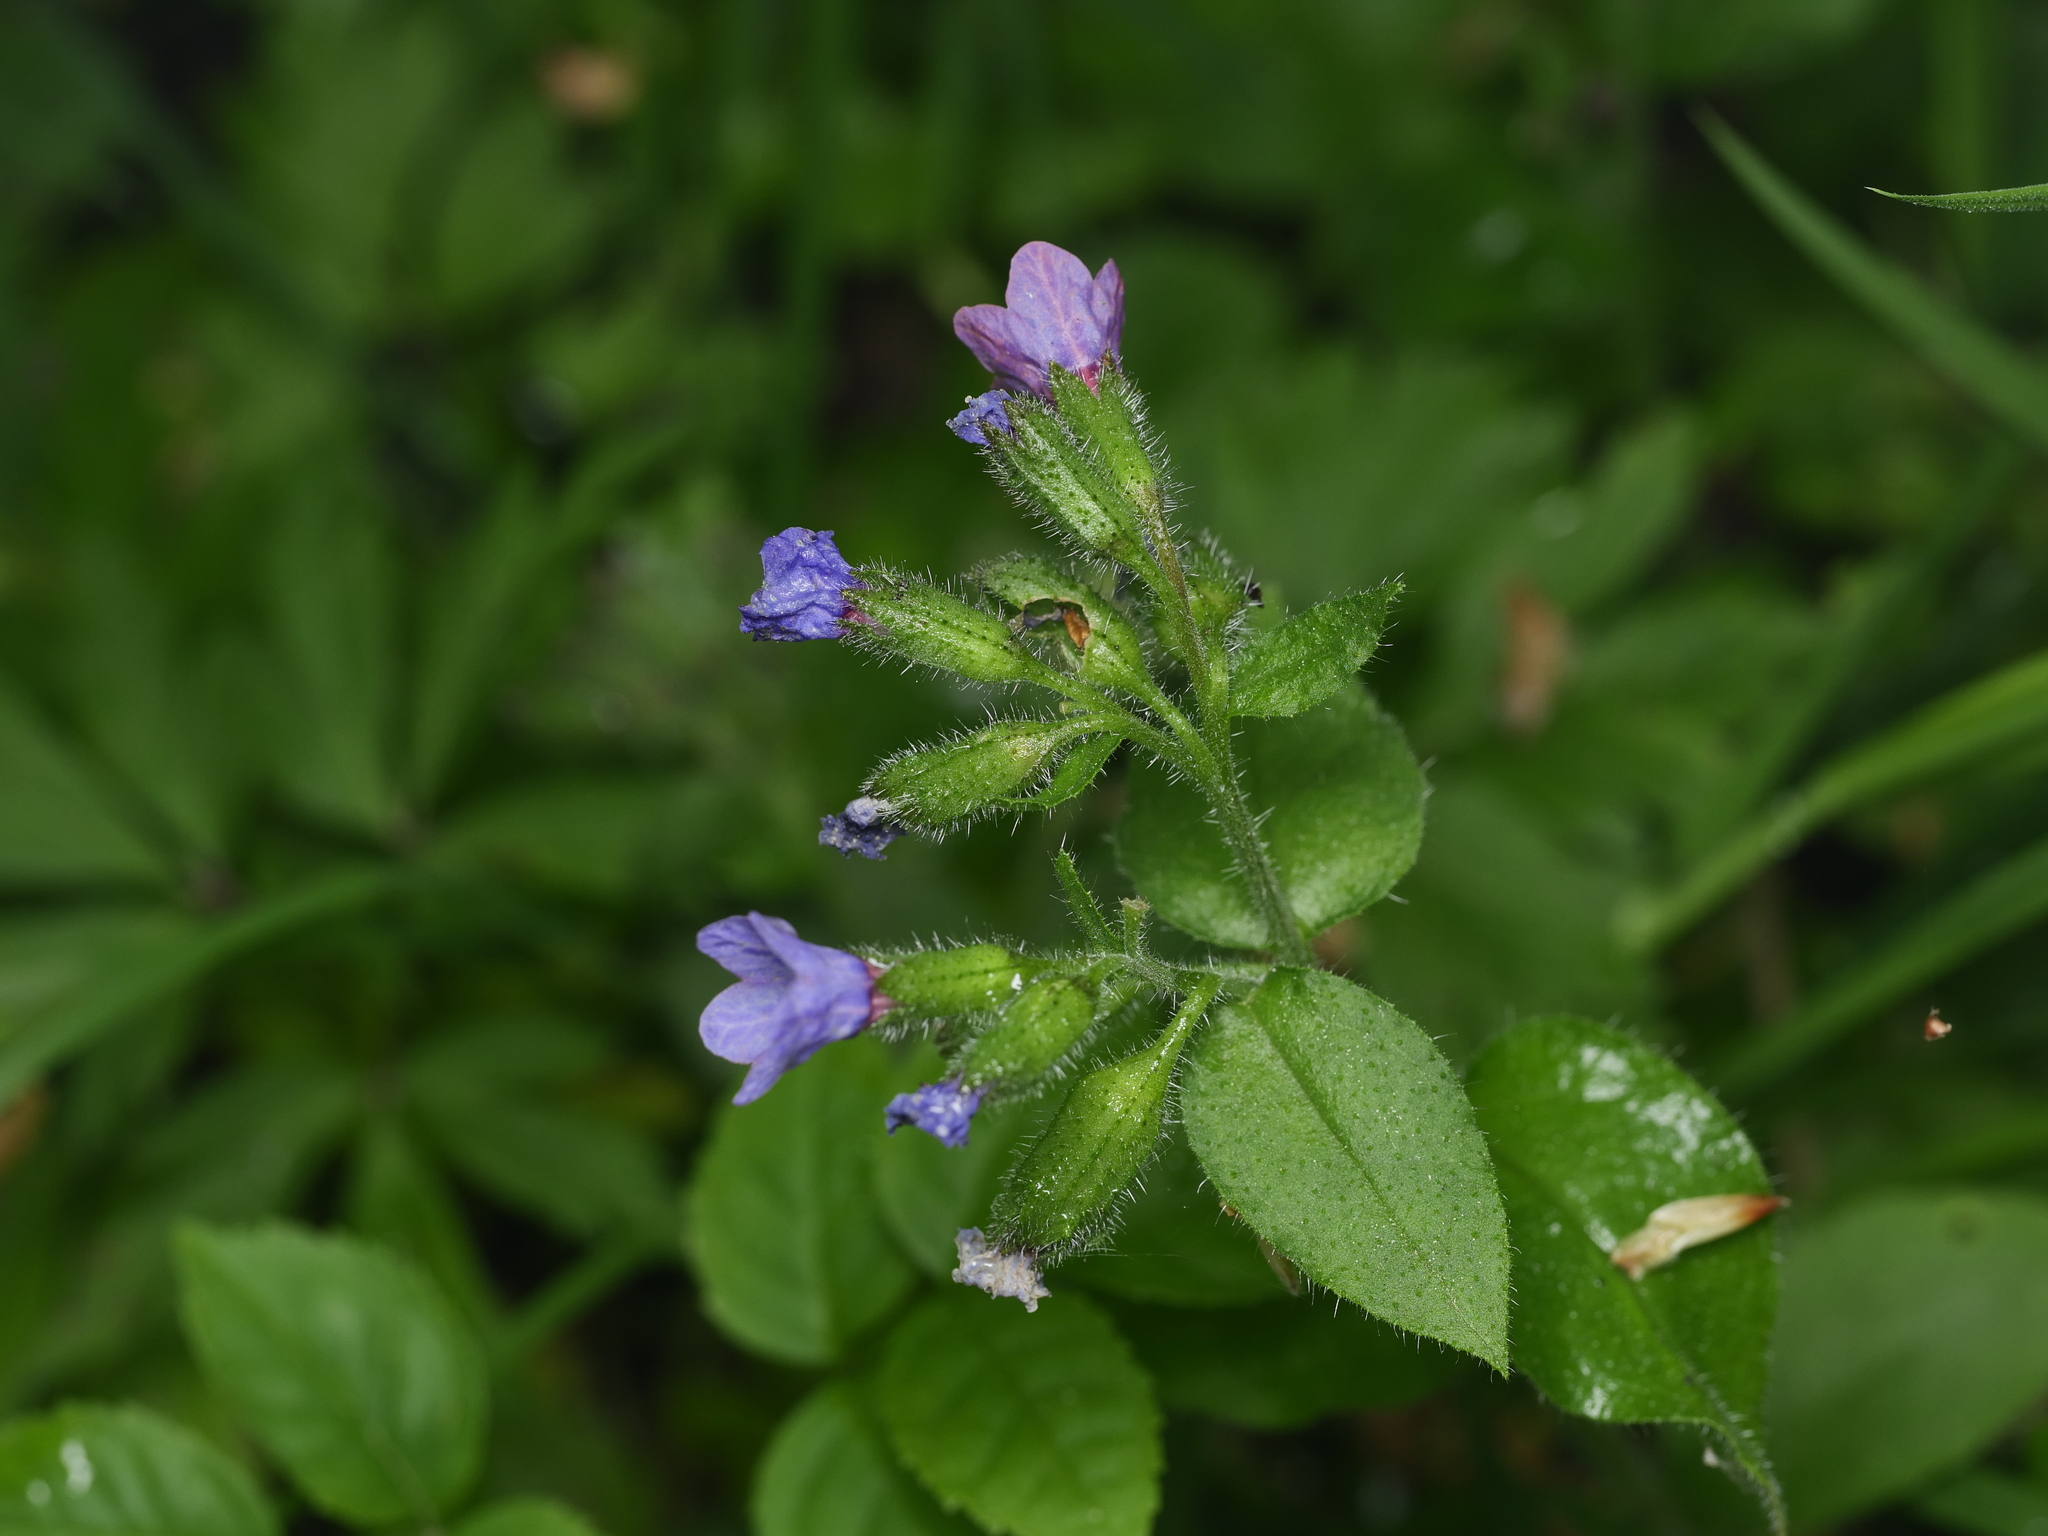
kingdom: Plantae
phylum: Tracheophyta
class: Magnoliopsida
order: Boraginales
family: Boraginaceae
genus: Pulmonaria
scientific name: Pulmonaria officinalis
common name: Lungwort
